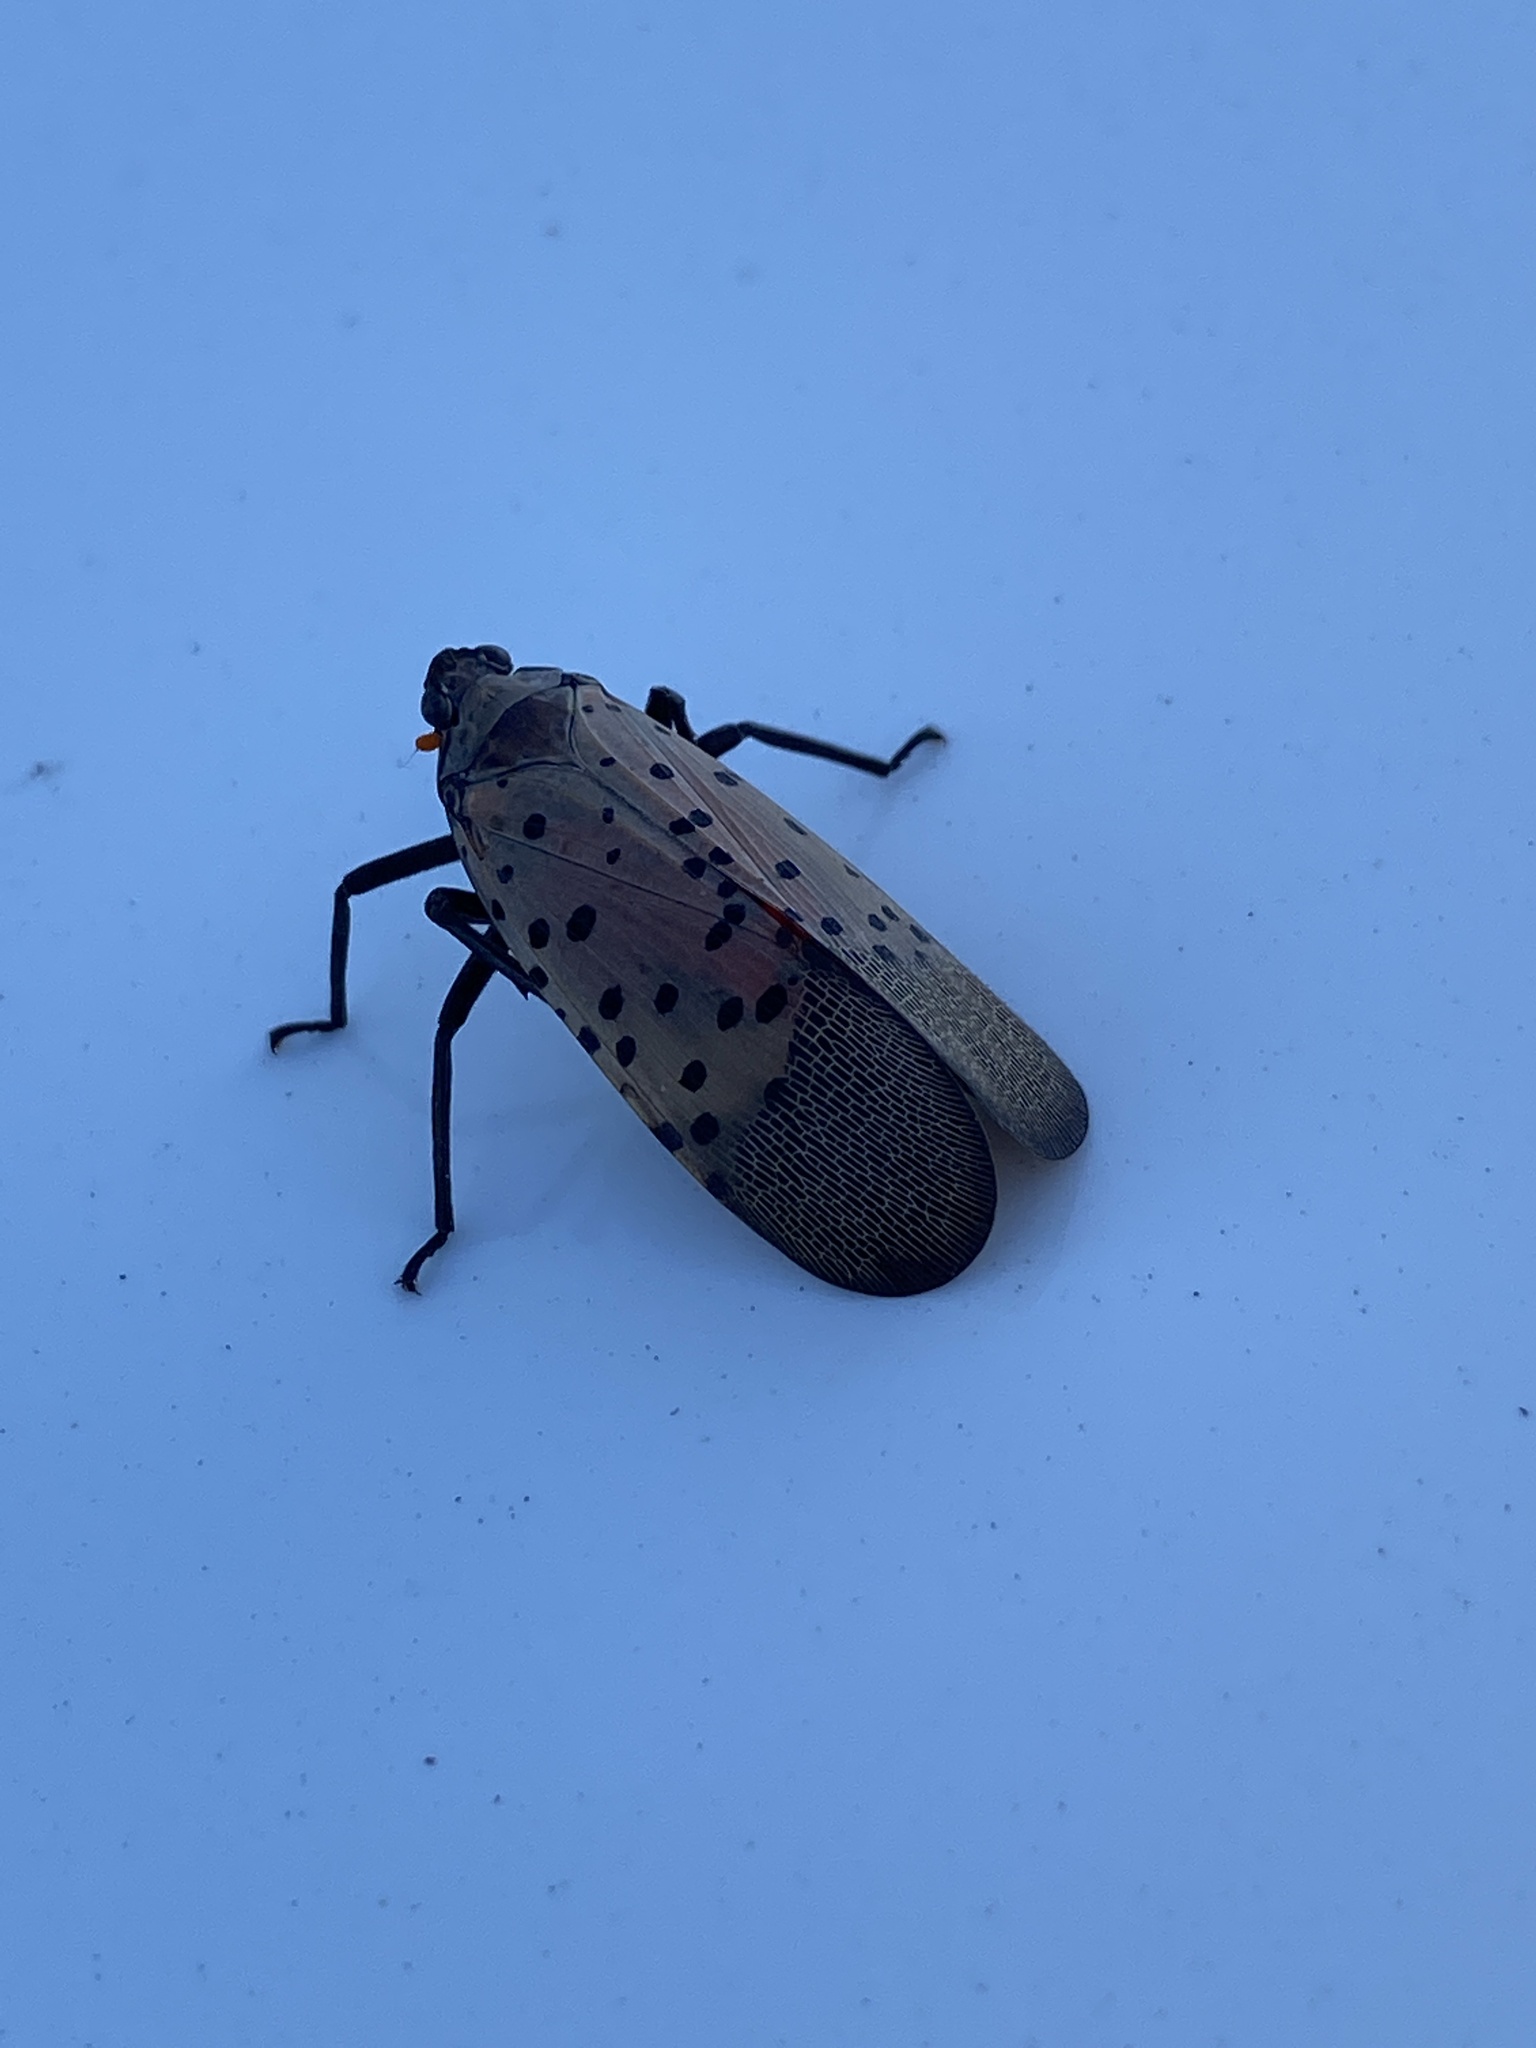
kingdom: Animalia
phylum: Arthropoda
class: Insecta
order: Hemiptera
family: Fulgoridae
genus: Lycorma
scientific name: Lycorma delicatula
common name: Spotted lanternfly
